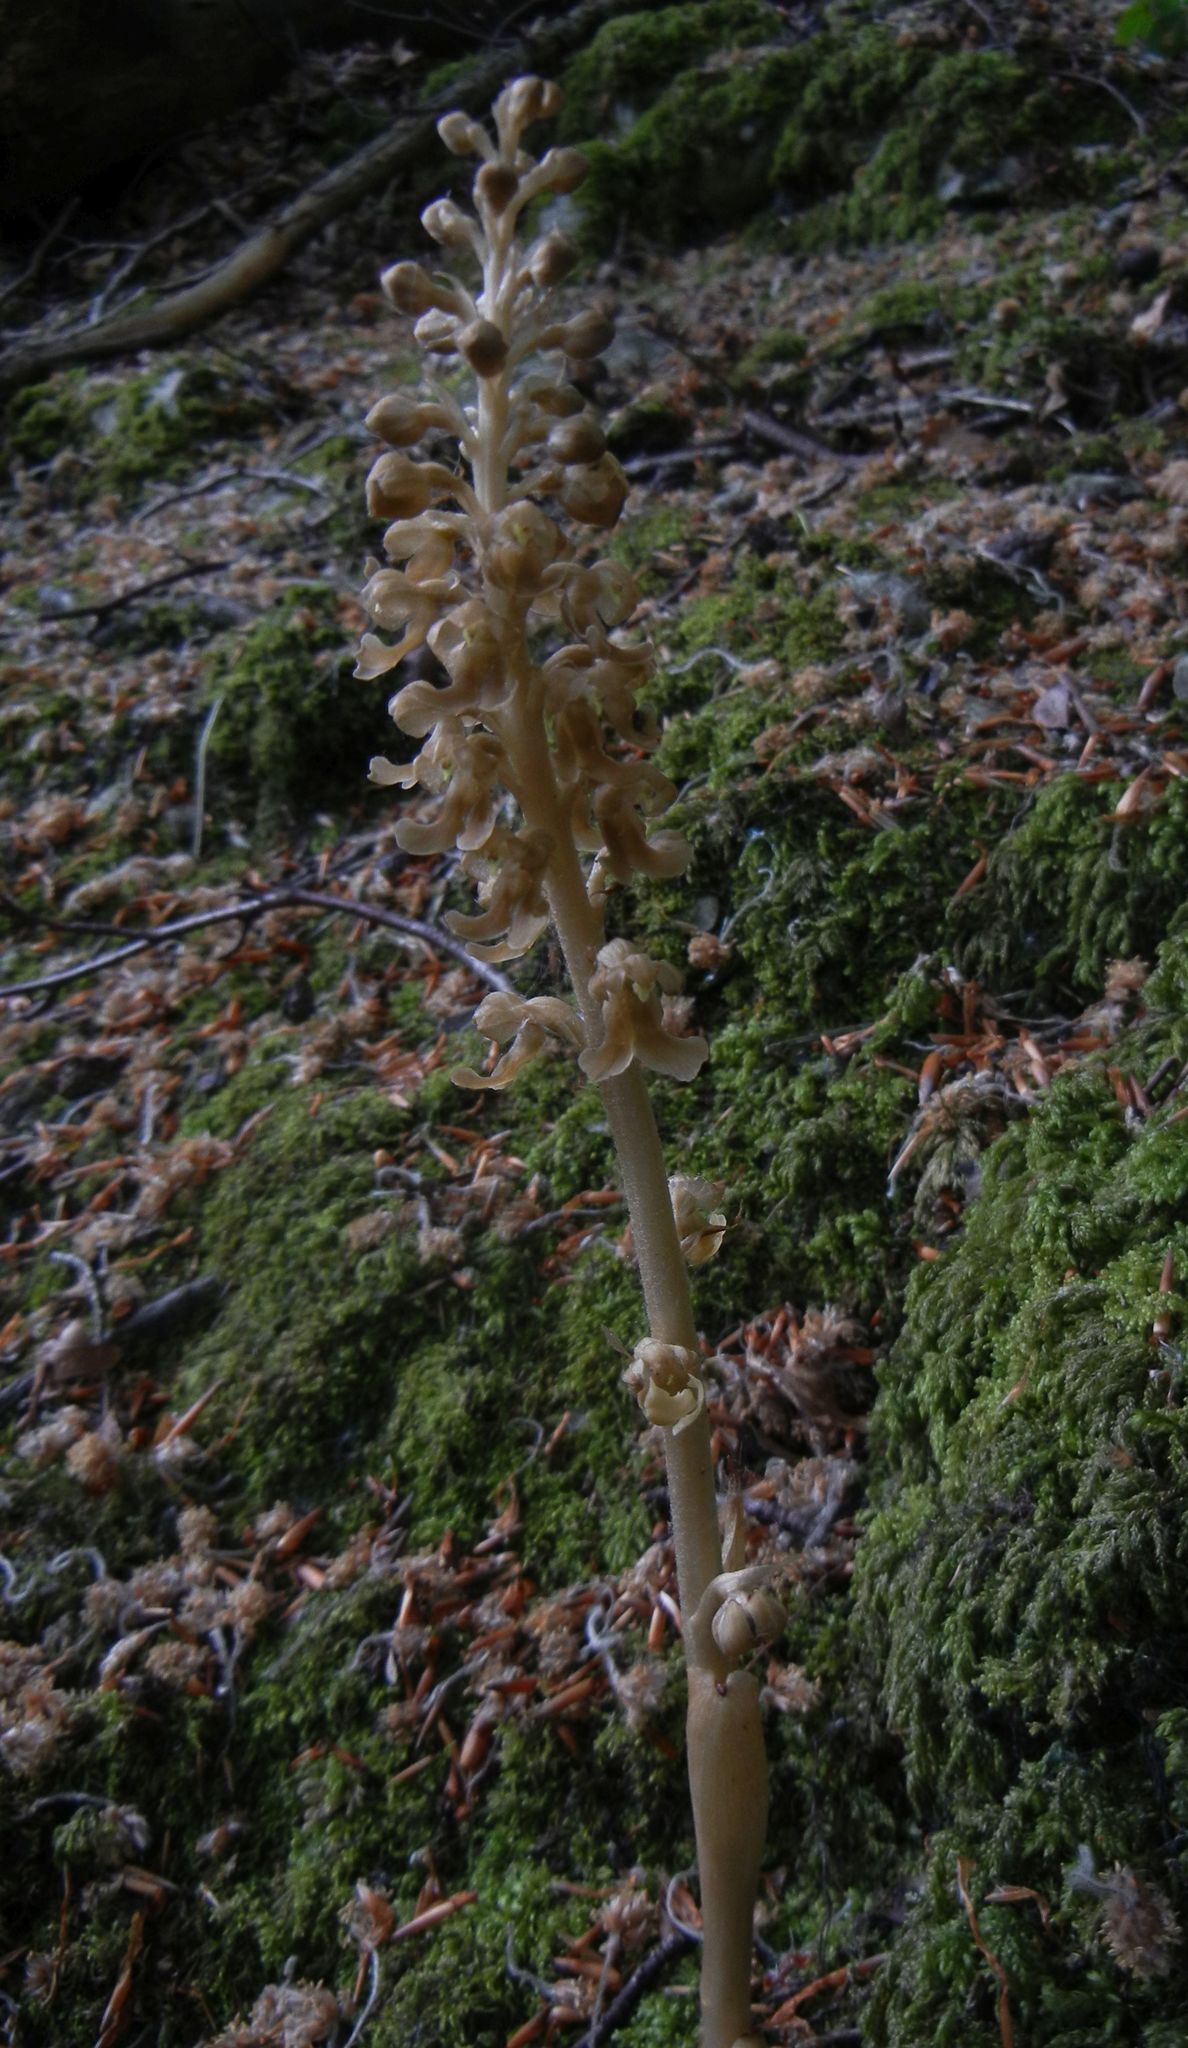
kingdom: Plantae
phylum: Tracheophyta
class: Liliopsida
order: Asparagales
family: Orchidaceae
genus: Neottia
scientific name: Neottia nidus-avis
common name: Bird's-nest orchid
